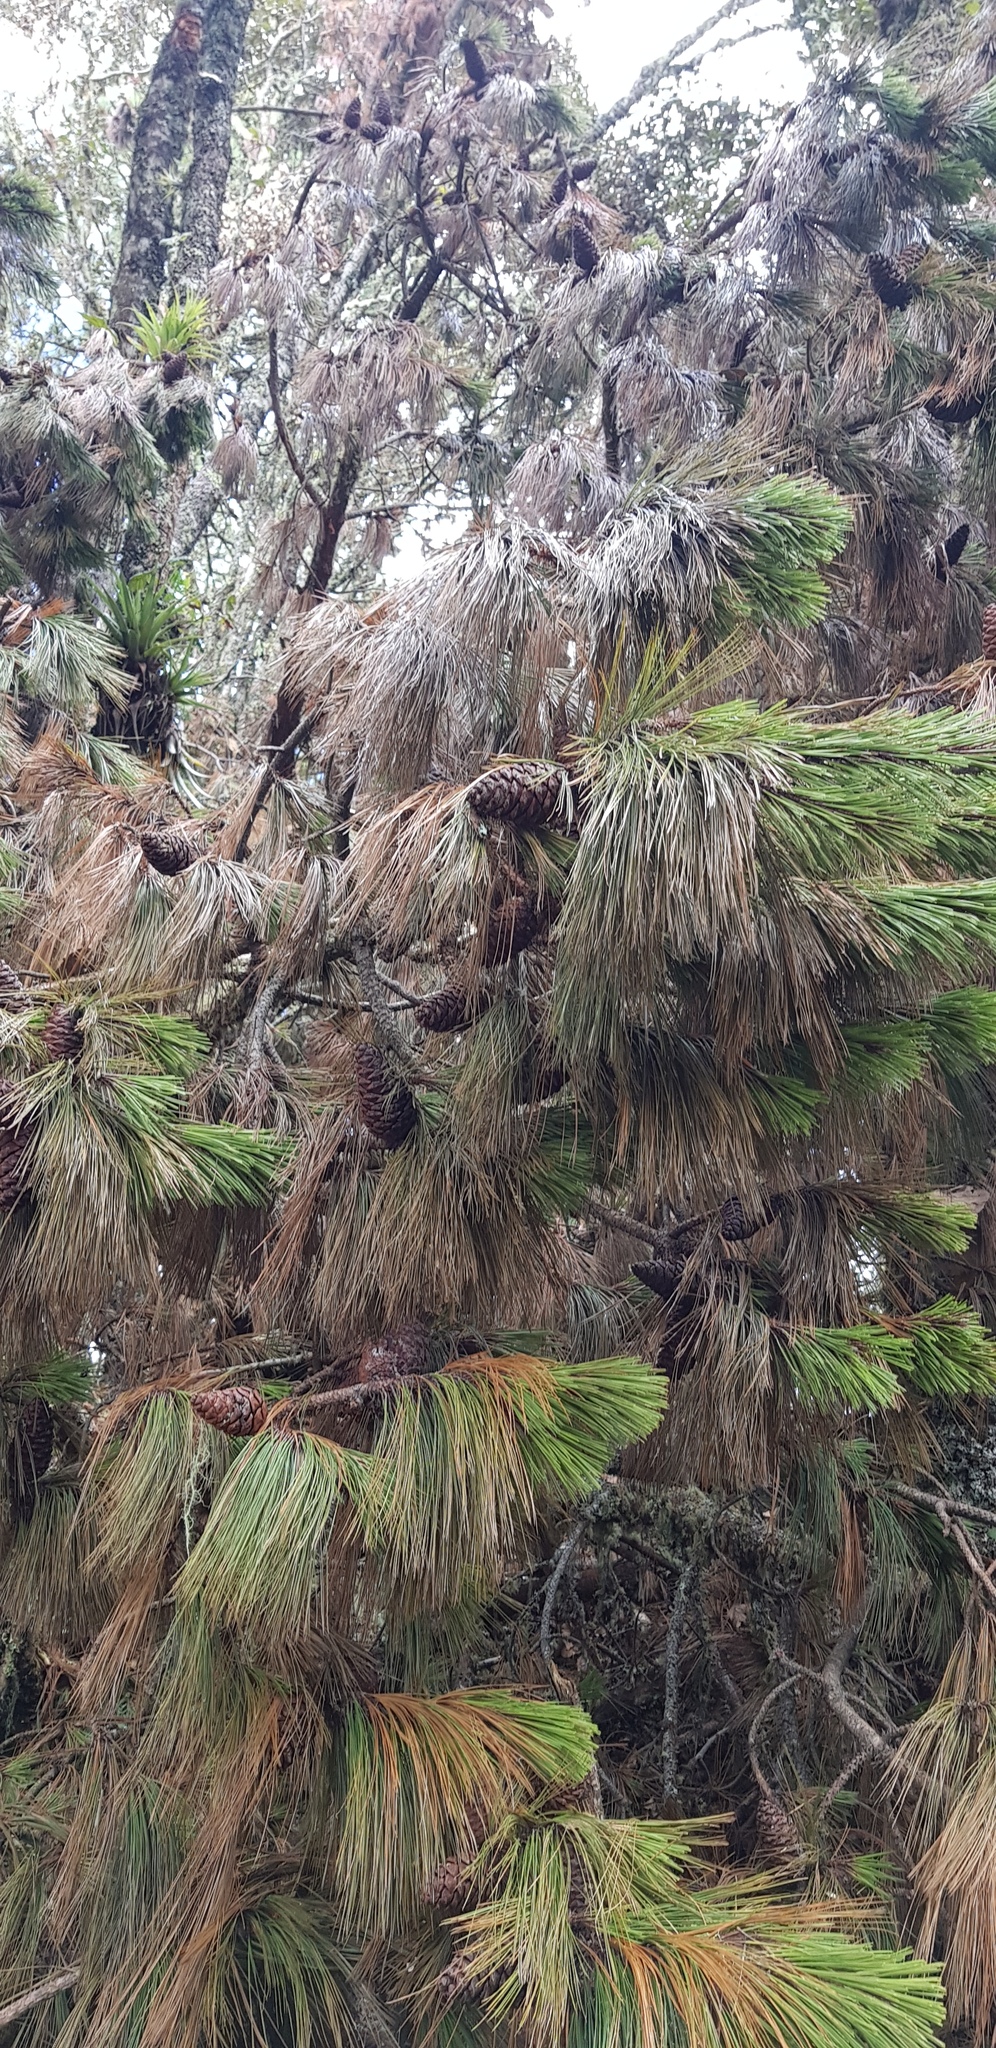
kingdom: Plantae
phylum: Tracheophyta
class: Pinopsida
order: Pinales
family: Pinaceae
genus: Pinus
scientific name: Pinus patula
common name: Mexican weeping pine
